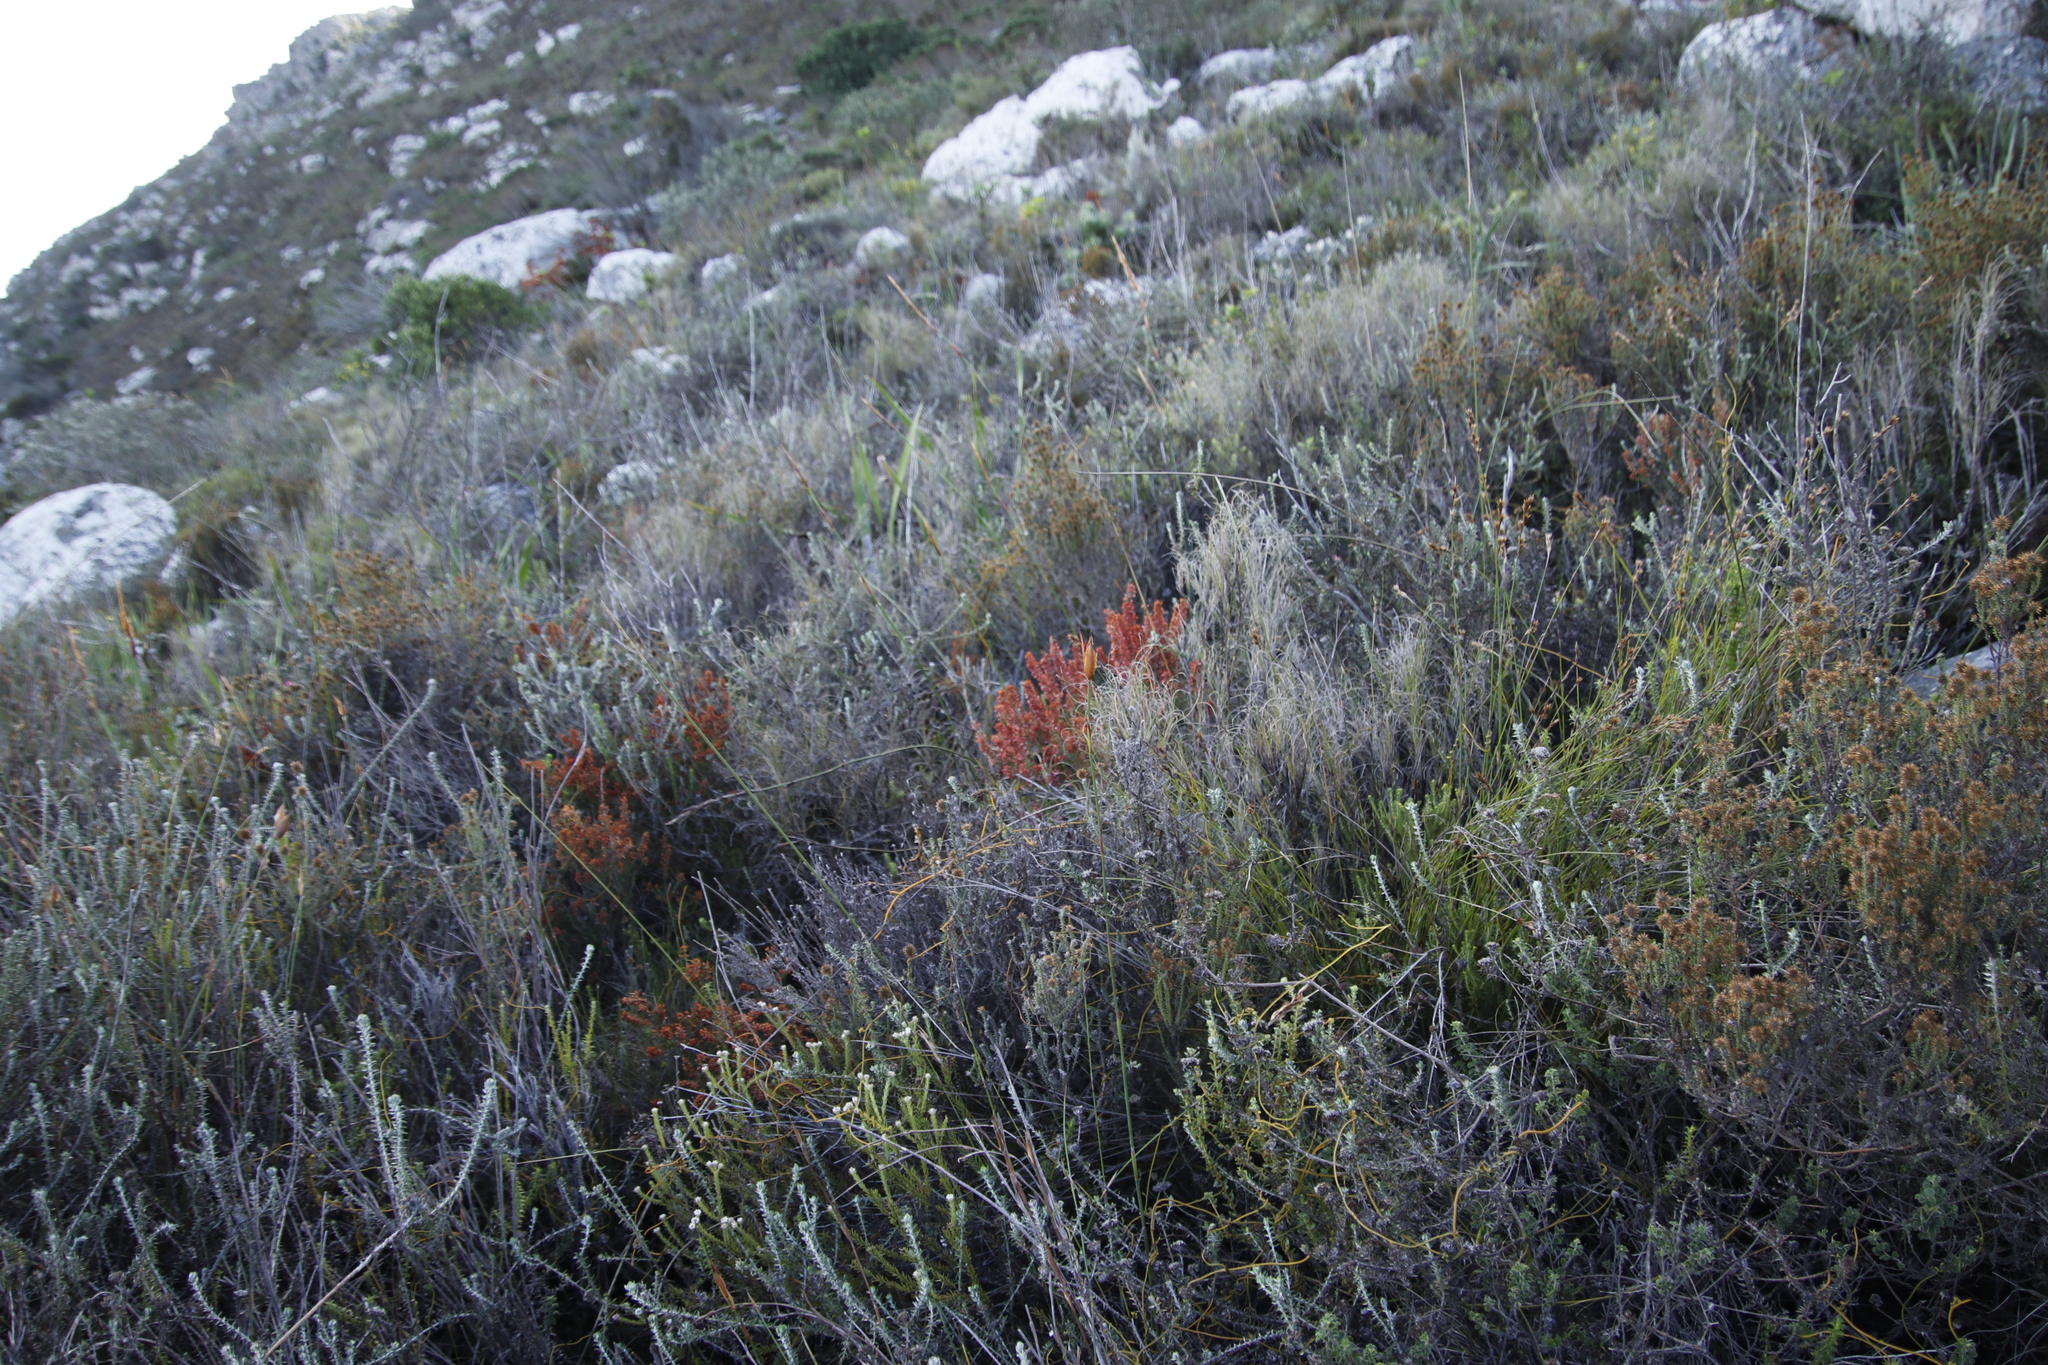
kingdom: Plantae
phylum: Tracheophyta
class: Magnoliopsida
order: Ericales
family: Ericaceae
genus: Erica
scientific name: Erica nudiflora
